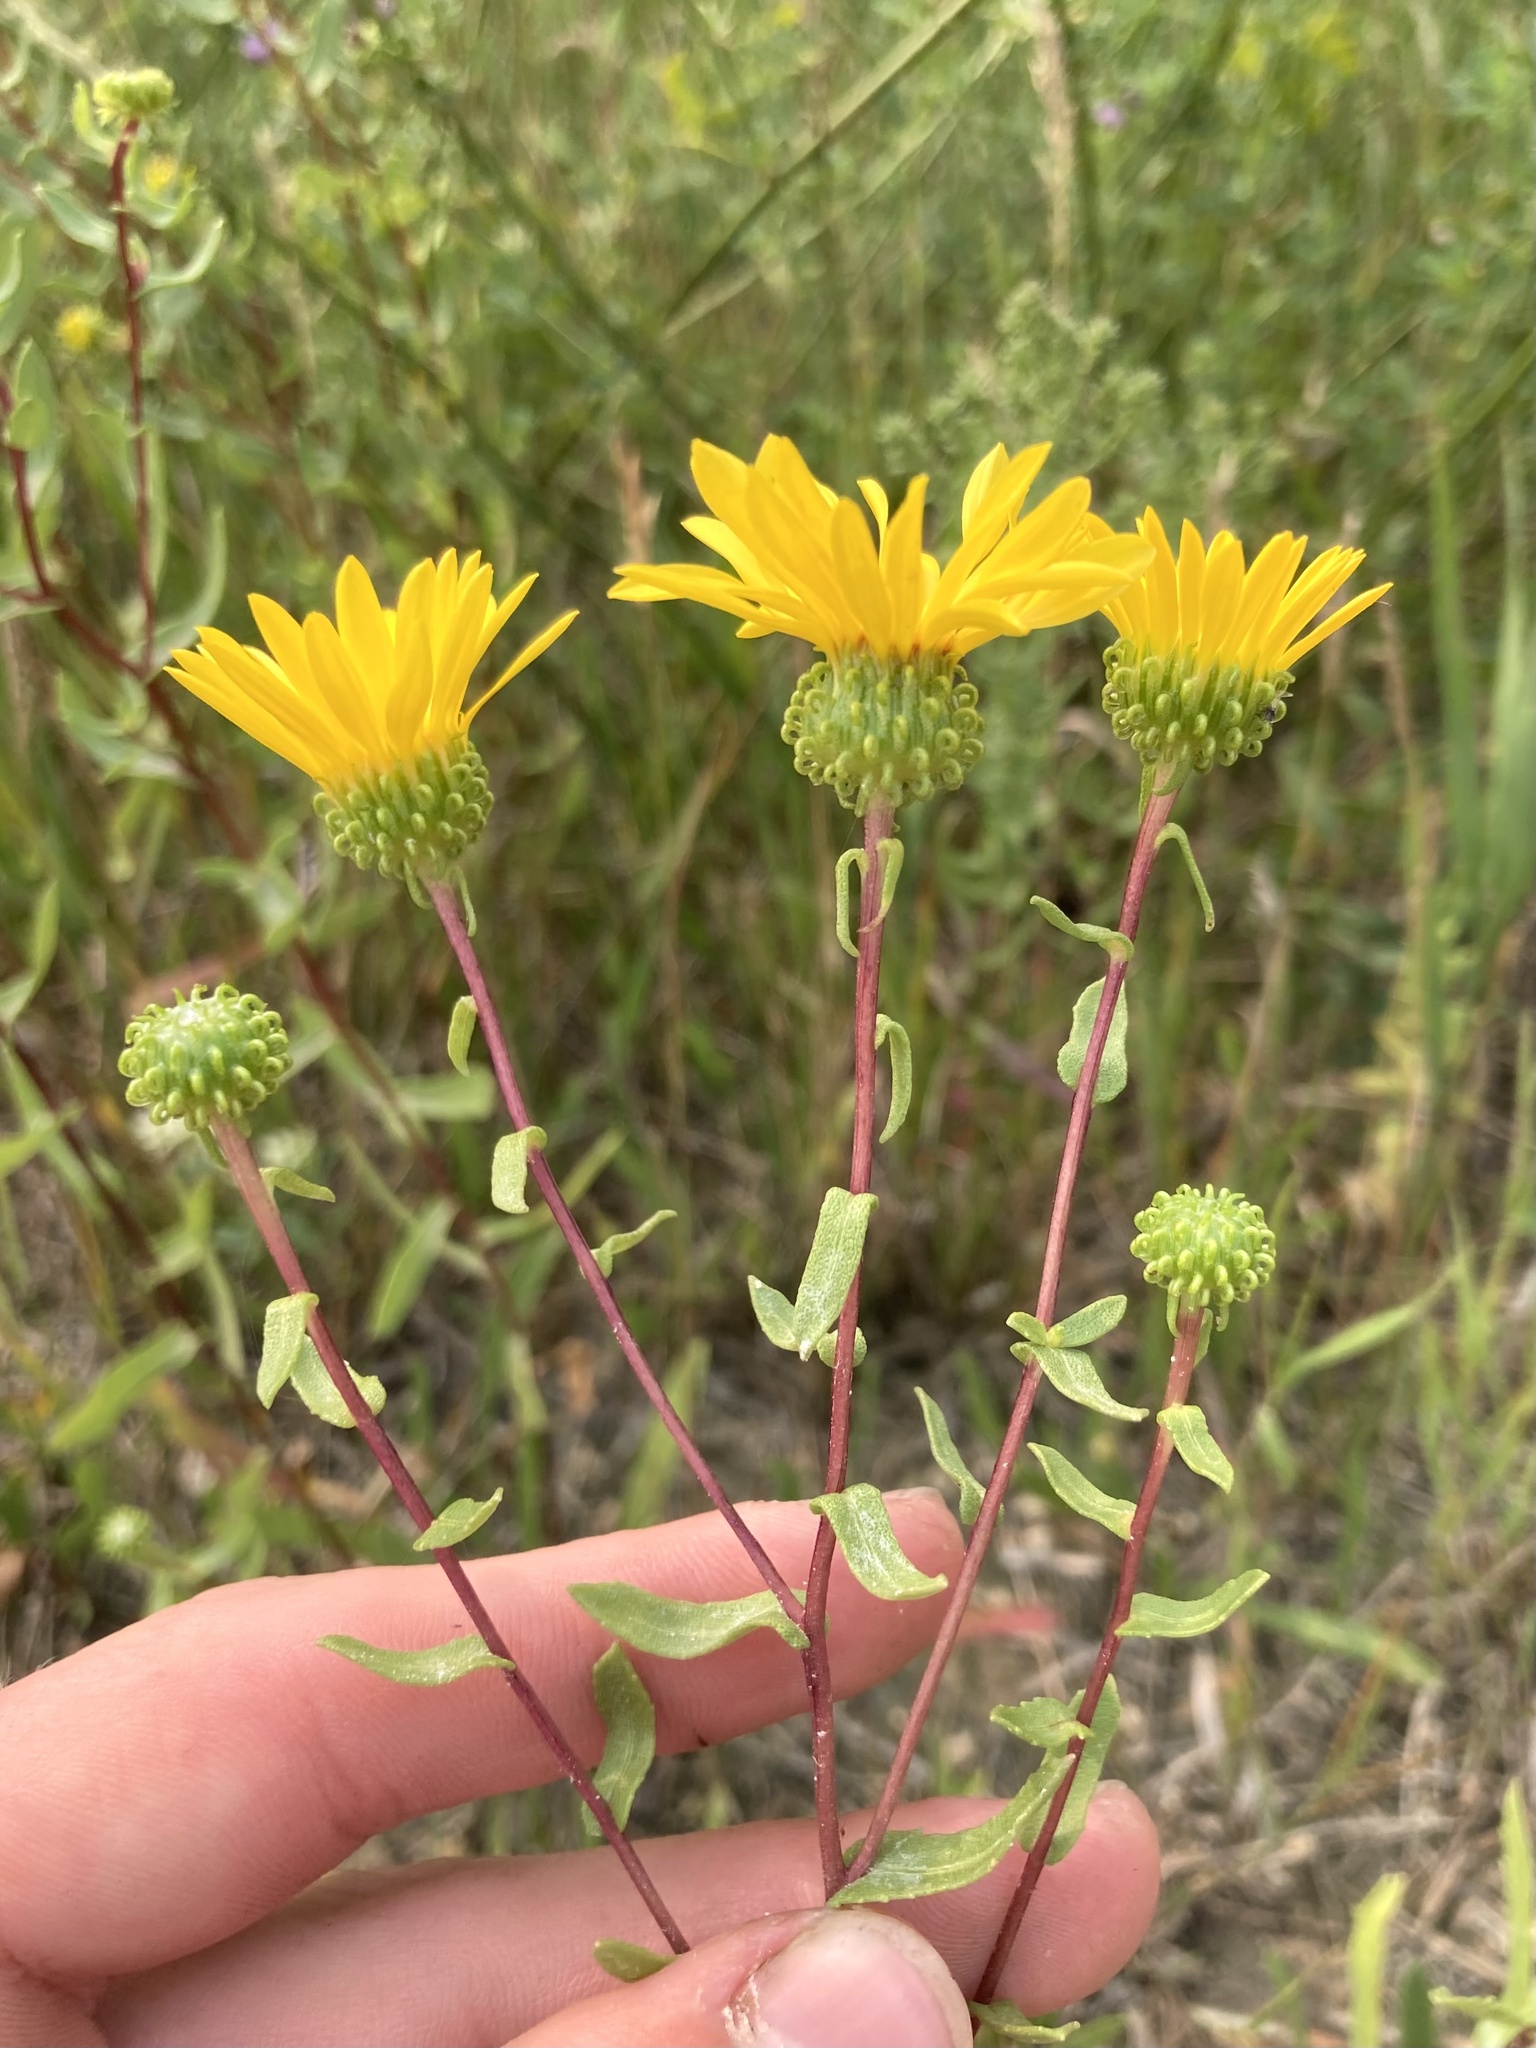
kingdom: Plantae
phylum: Tracheophyta
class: Magnoliopsida
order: Asterales
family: Asteraceae
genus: Grindelia
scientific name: Grindelia squarrosa
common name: Curly-cup gumweed
